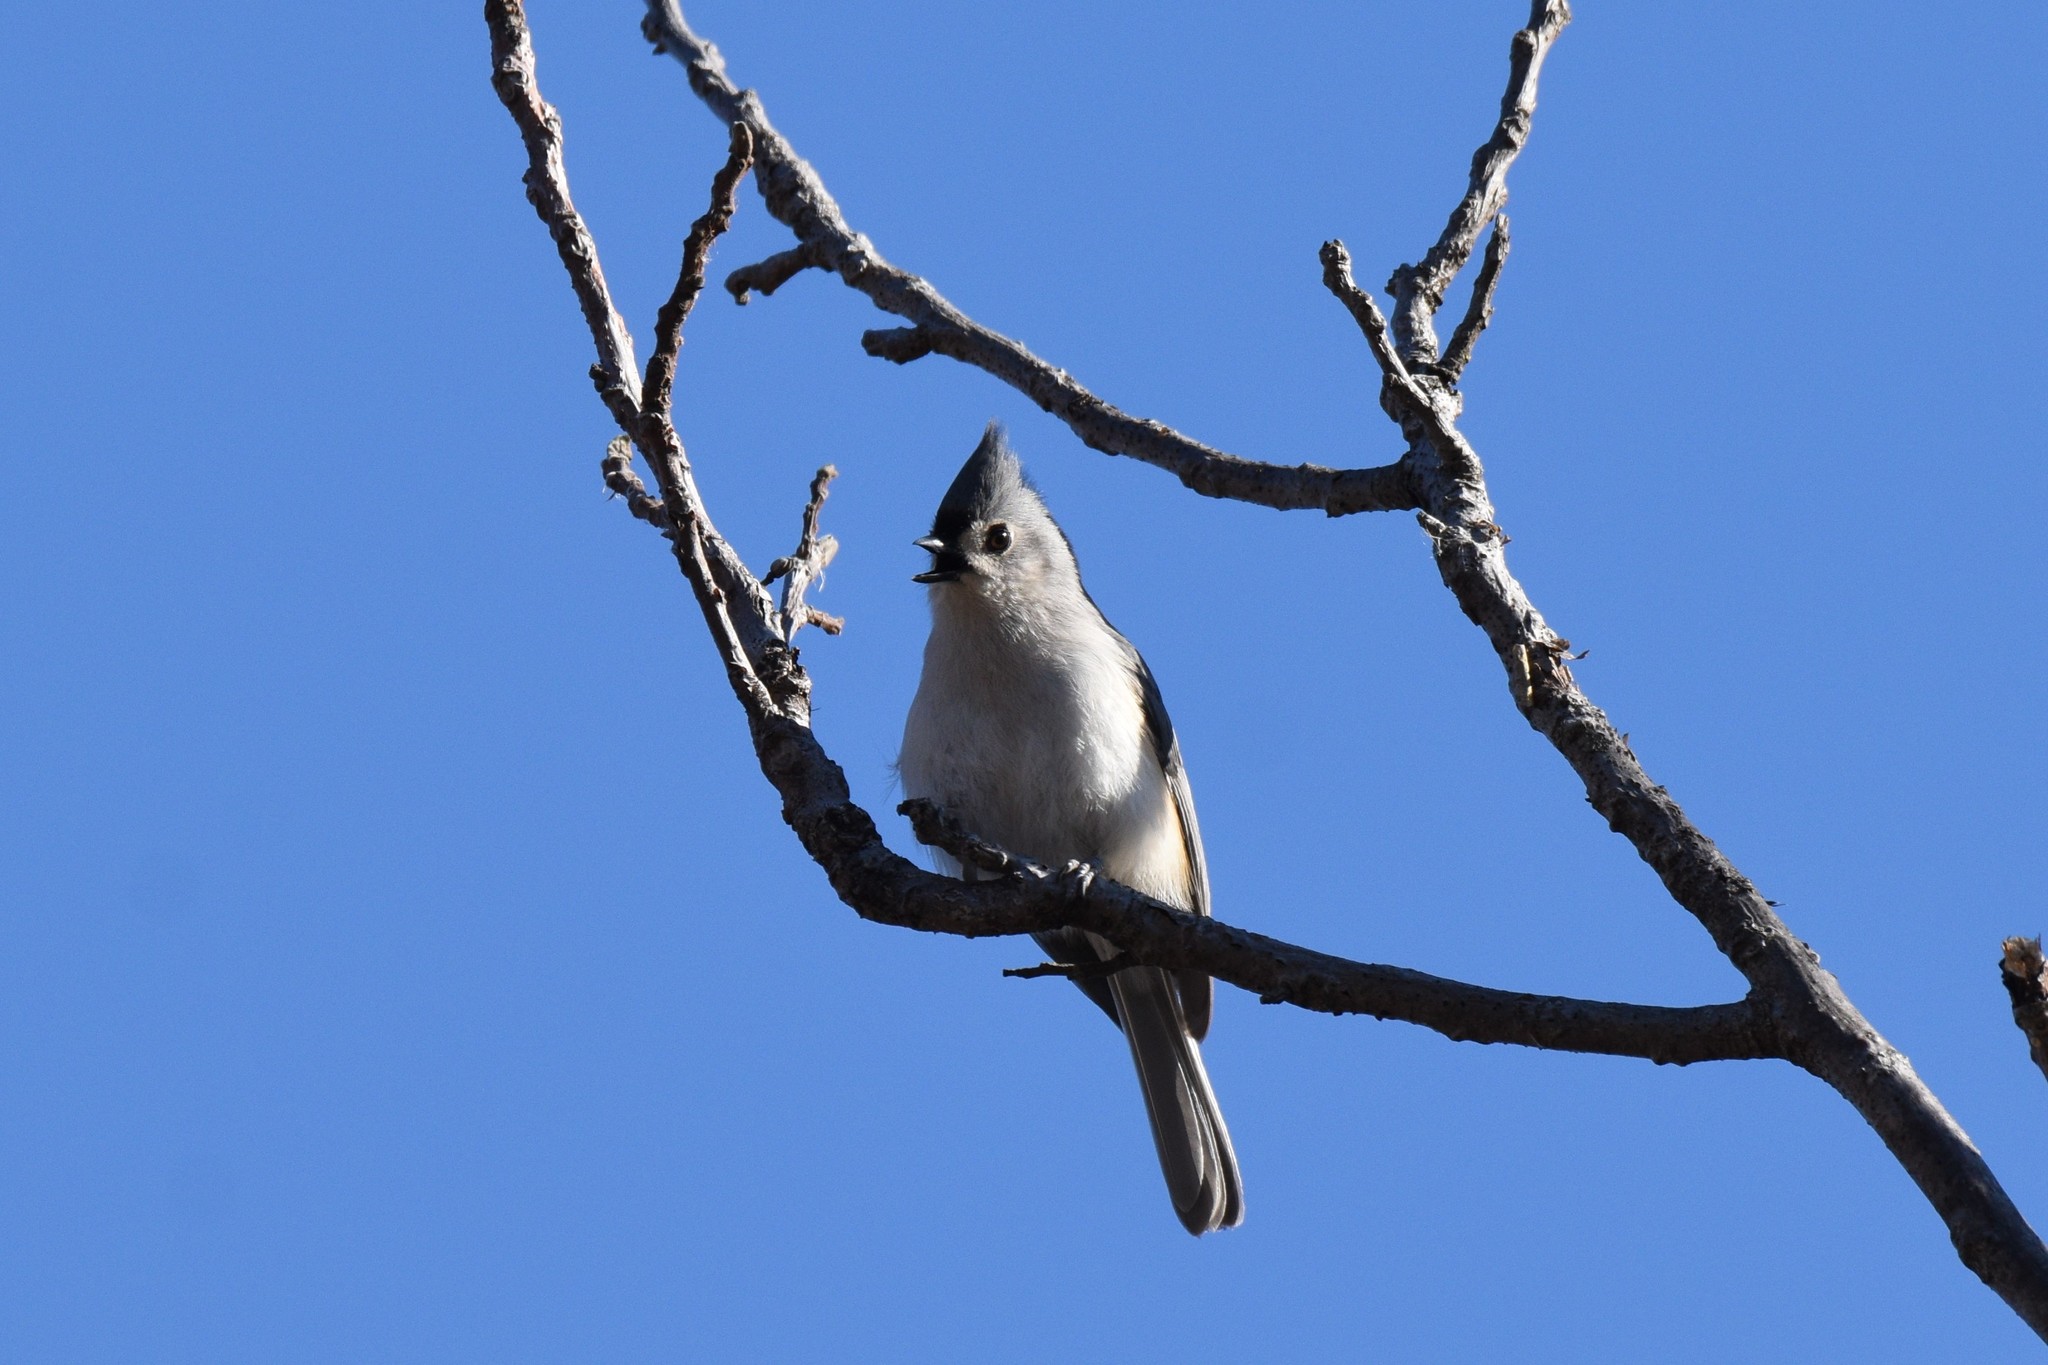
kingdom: Animalia
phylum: Chordata
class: Aves
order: Passeriformes
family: Paridae
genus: Baeolophus
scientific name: Baeolophus bicolor
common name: Tufted titmouse
